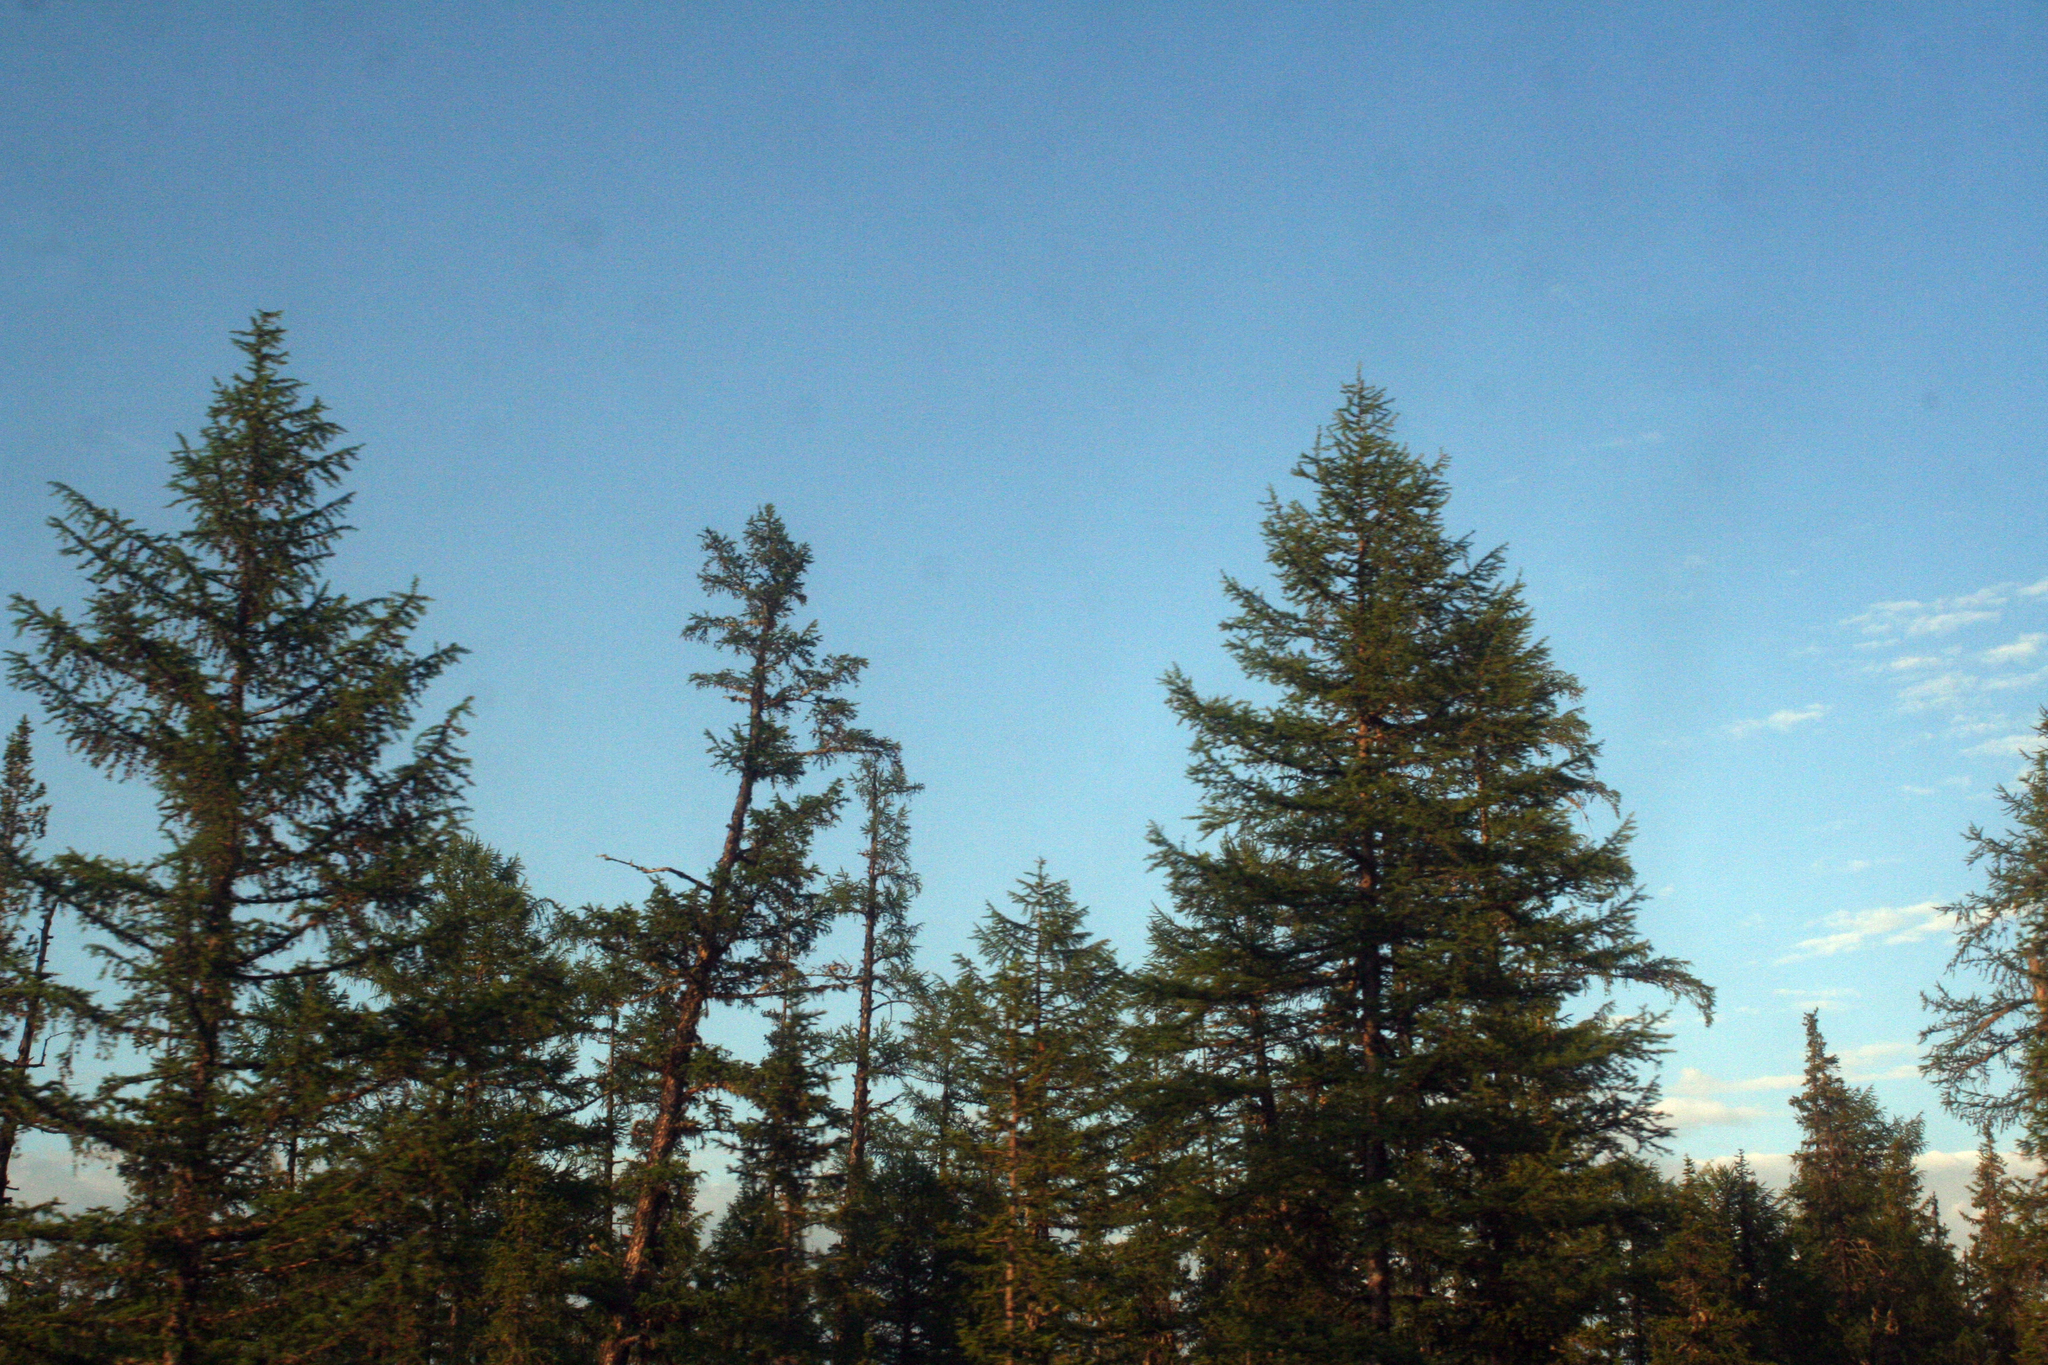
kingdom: Plantae
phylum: Tracheophyta
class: Pinopsida
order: Pinales
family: Pinaceae
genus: Larix
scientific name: Larix gmelinii
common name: Dahurian larch
